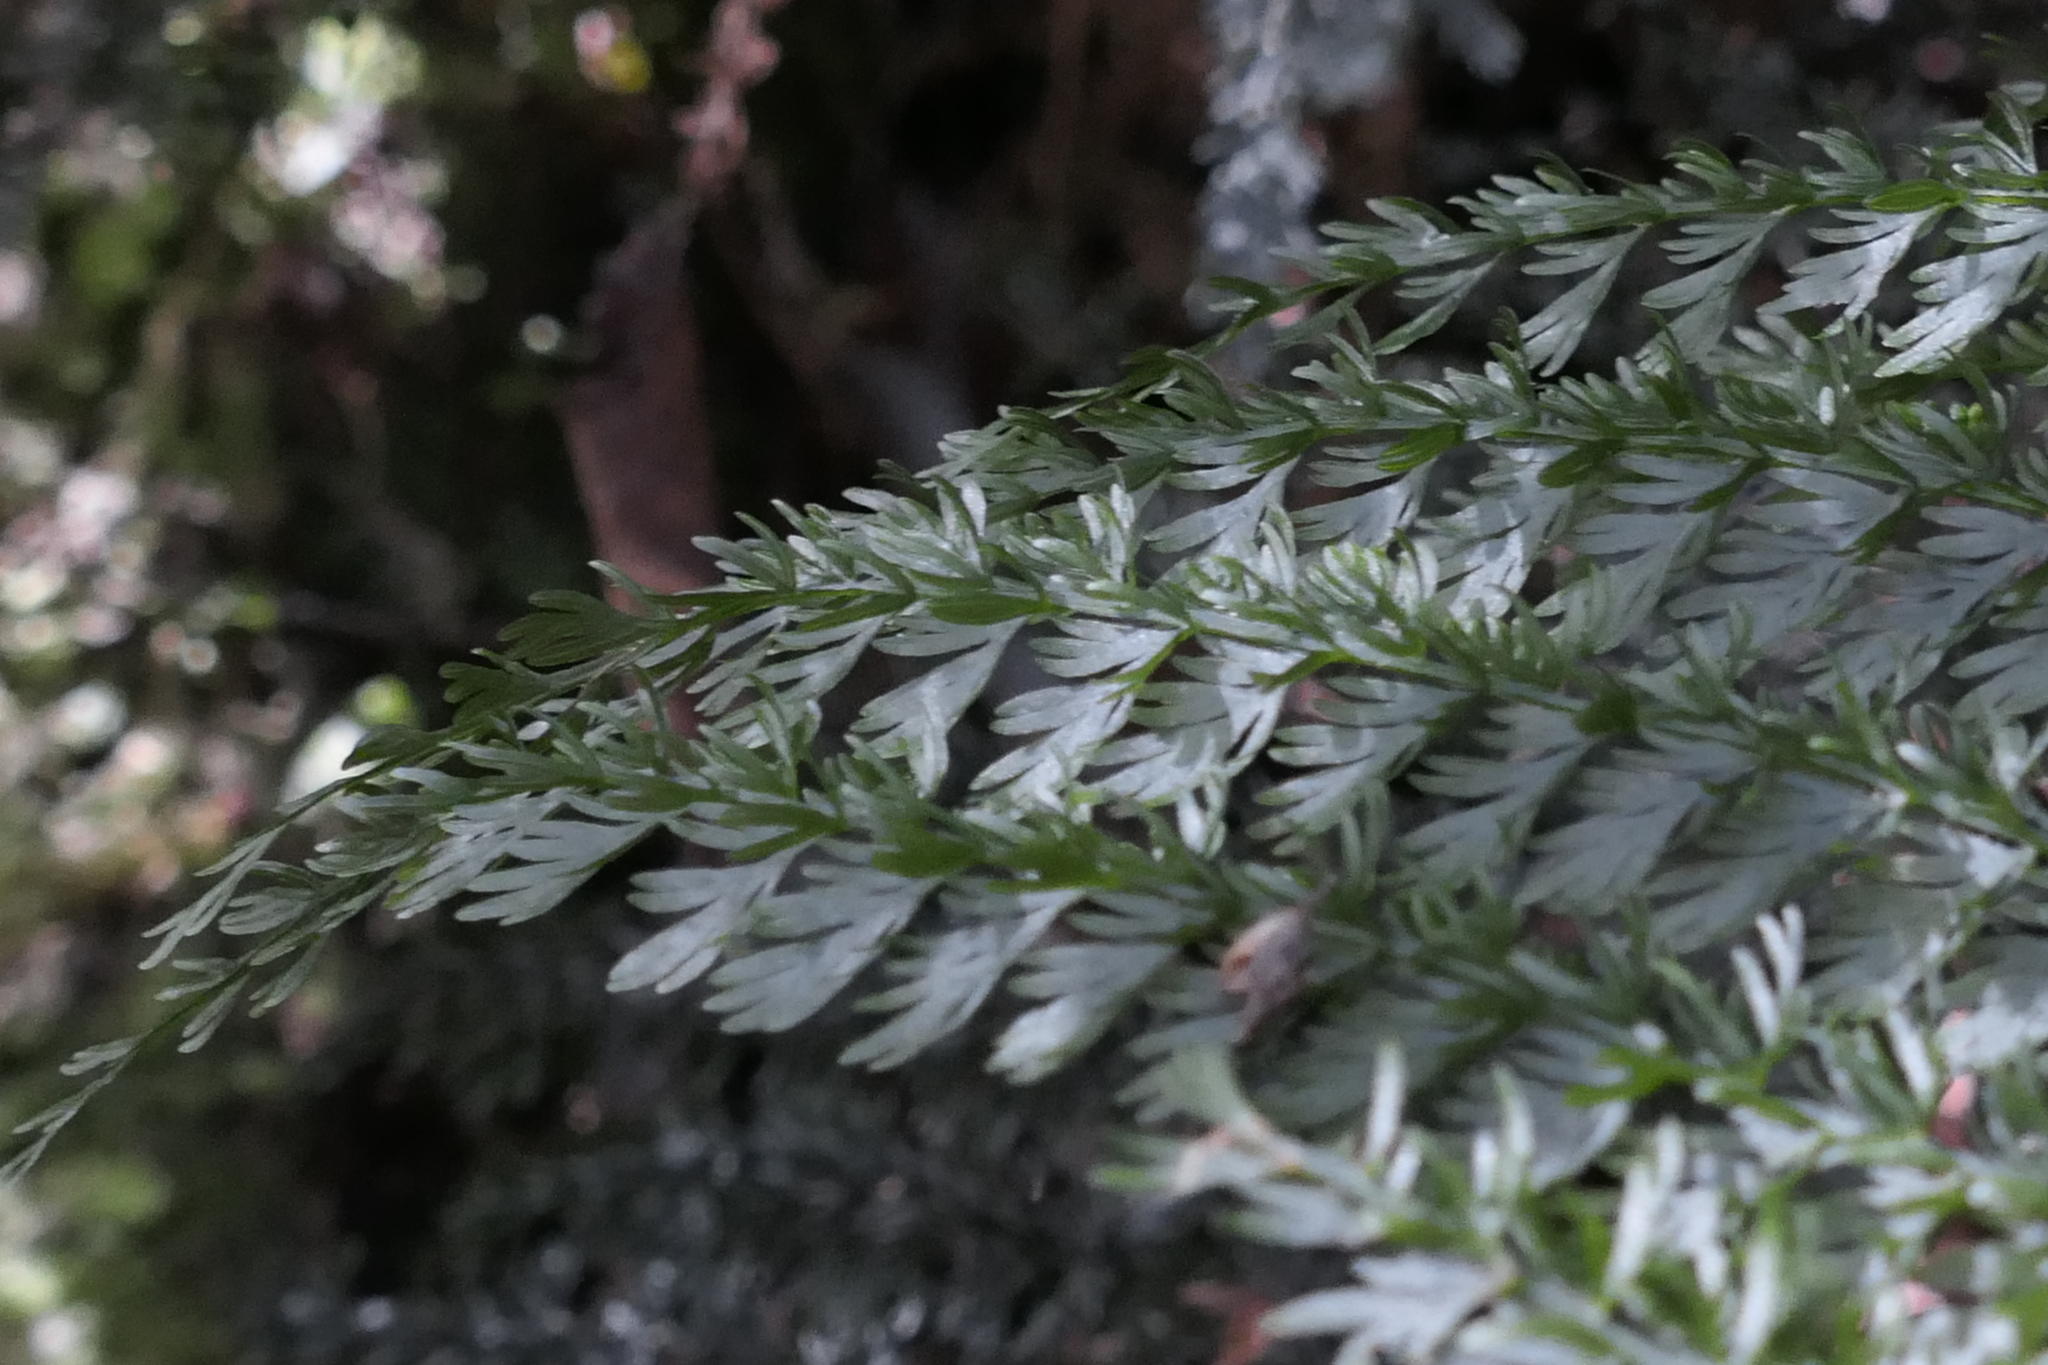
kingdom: Plantae
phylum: Tracheophyta
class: Polypodiopsida
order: Osmundales
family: Osmundaceae
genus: Leptopteris
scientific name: Leptopteris superba
